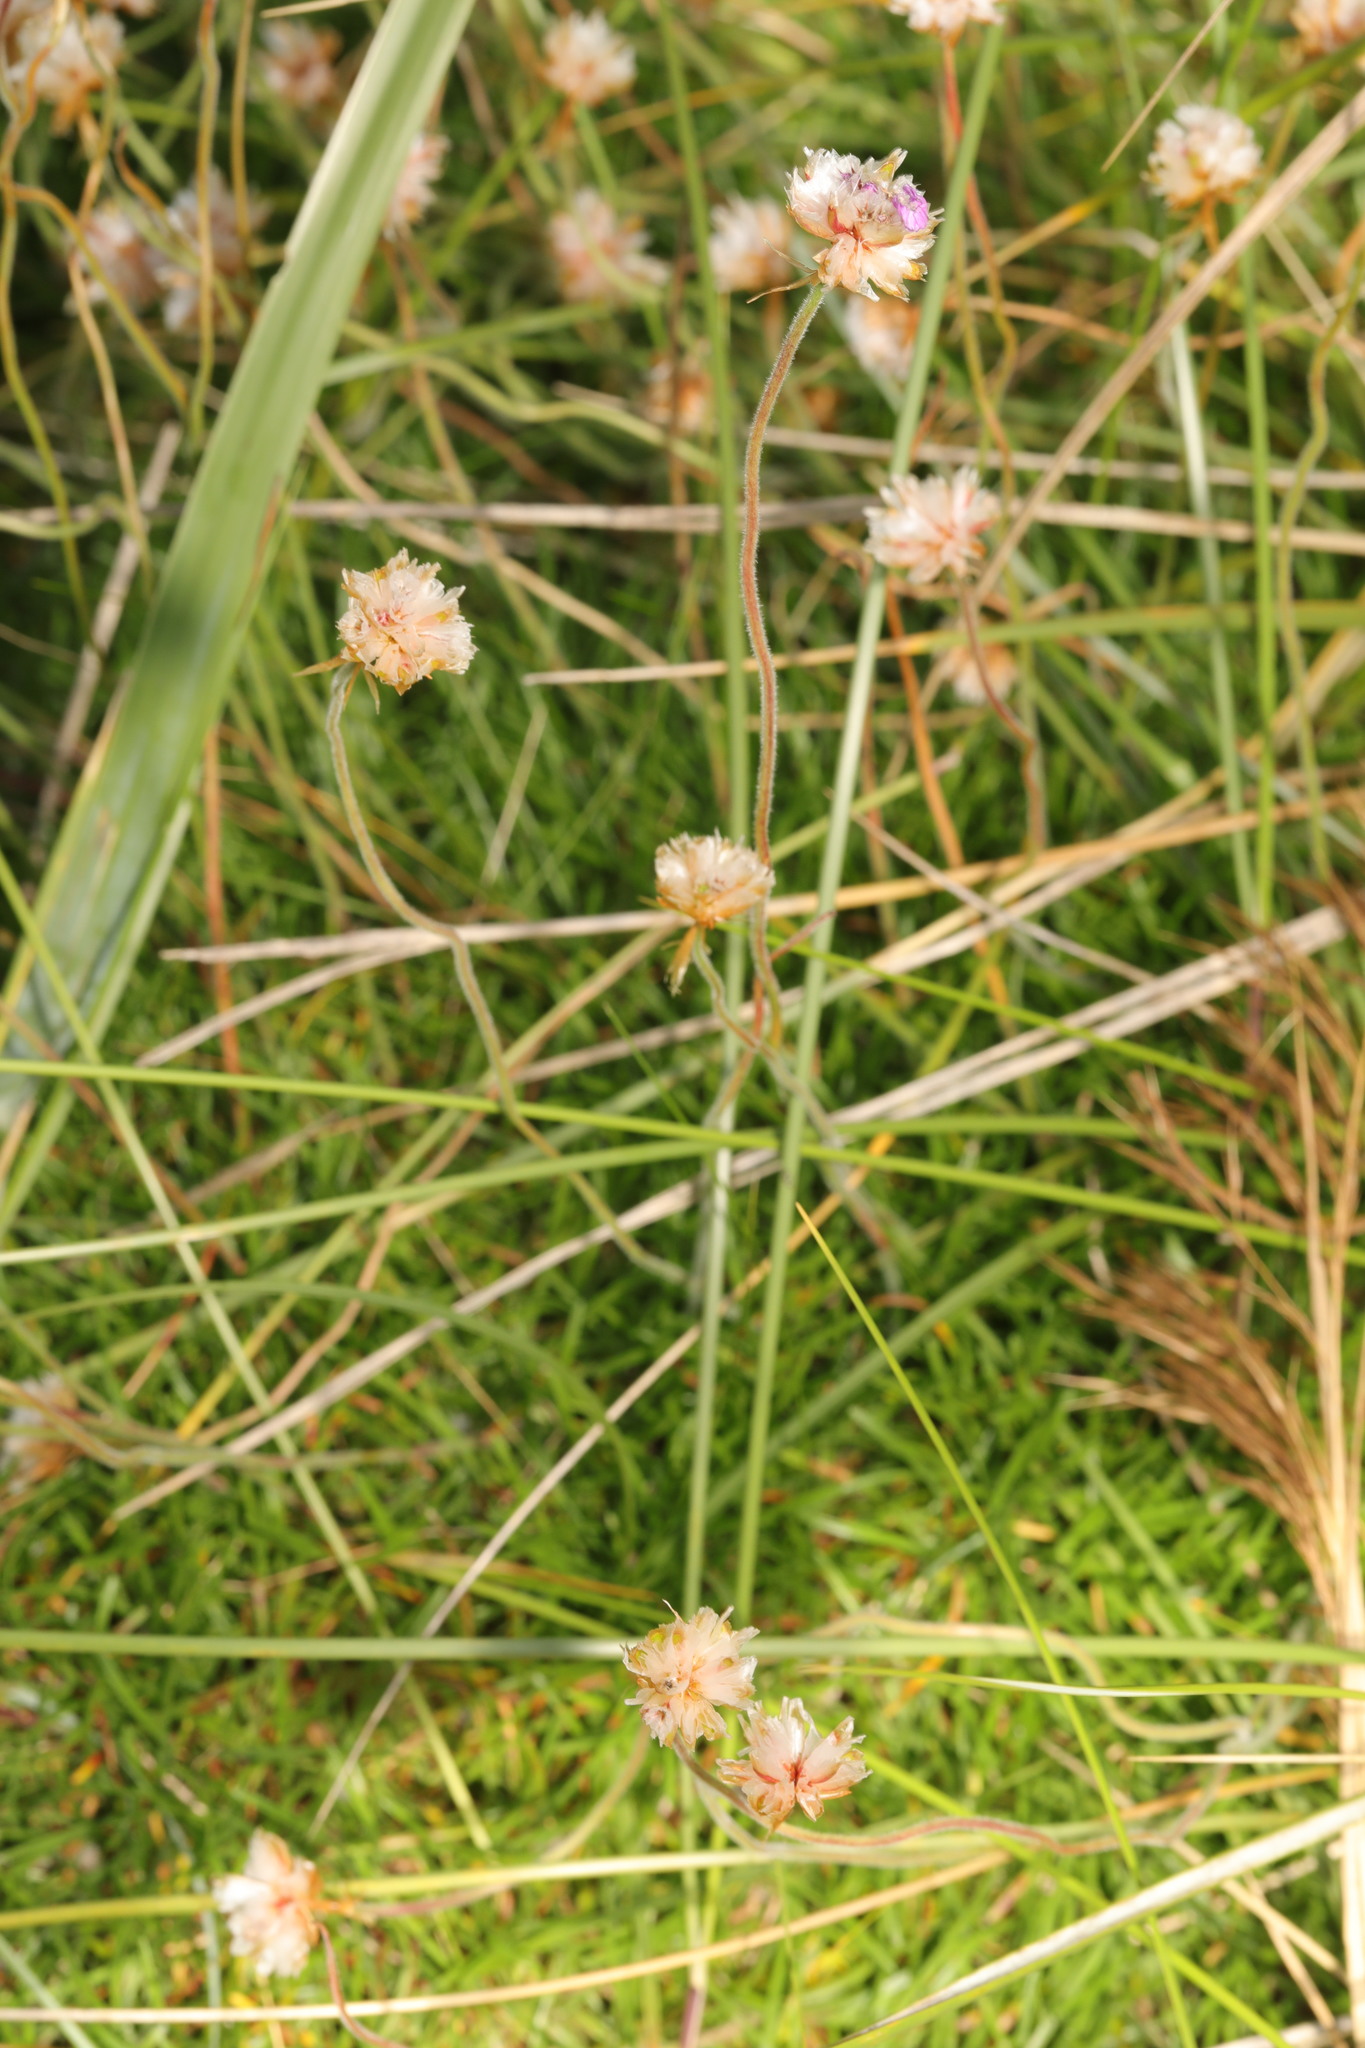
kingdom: Plantae
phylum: Tracheophyta
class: Magnoliopsida
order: Caryophyllales
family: Plumbaginaceae
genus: Armeria
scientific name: Armeria maritima
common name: Thrift
